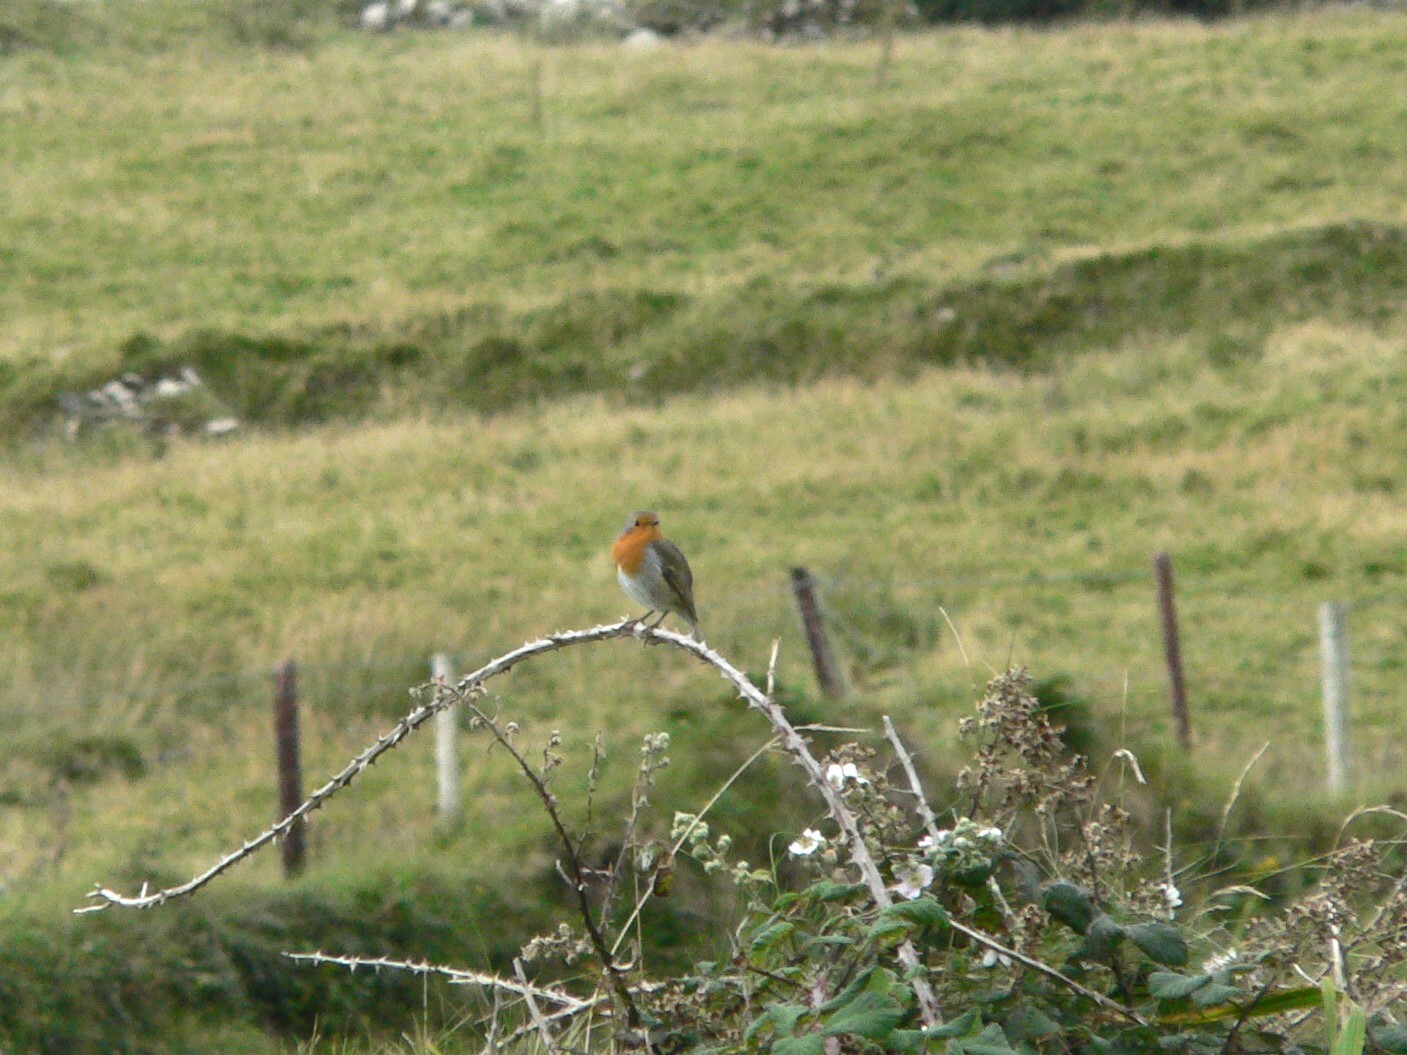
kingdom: Animalia
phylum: Chordata
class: Aves
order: Passeriformes
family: Muscicapidae
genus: Erithacus
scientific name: Erithacus rubecula
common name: European robin
